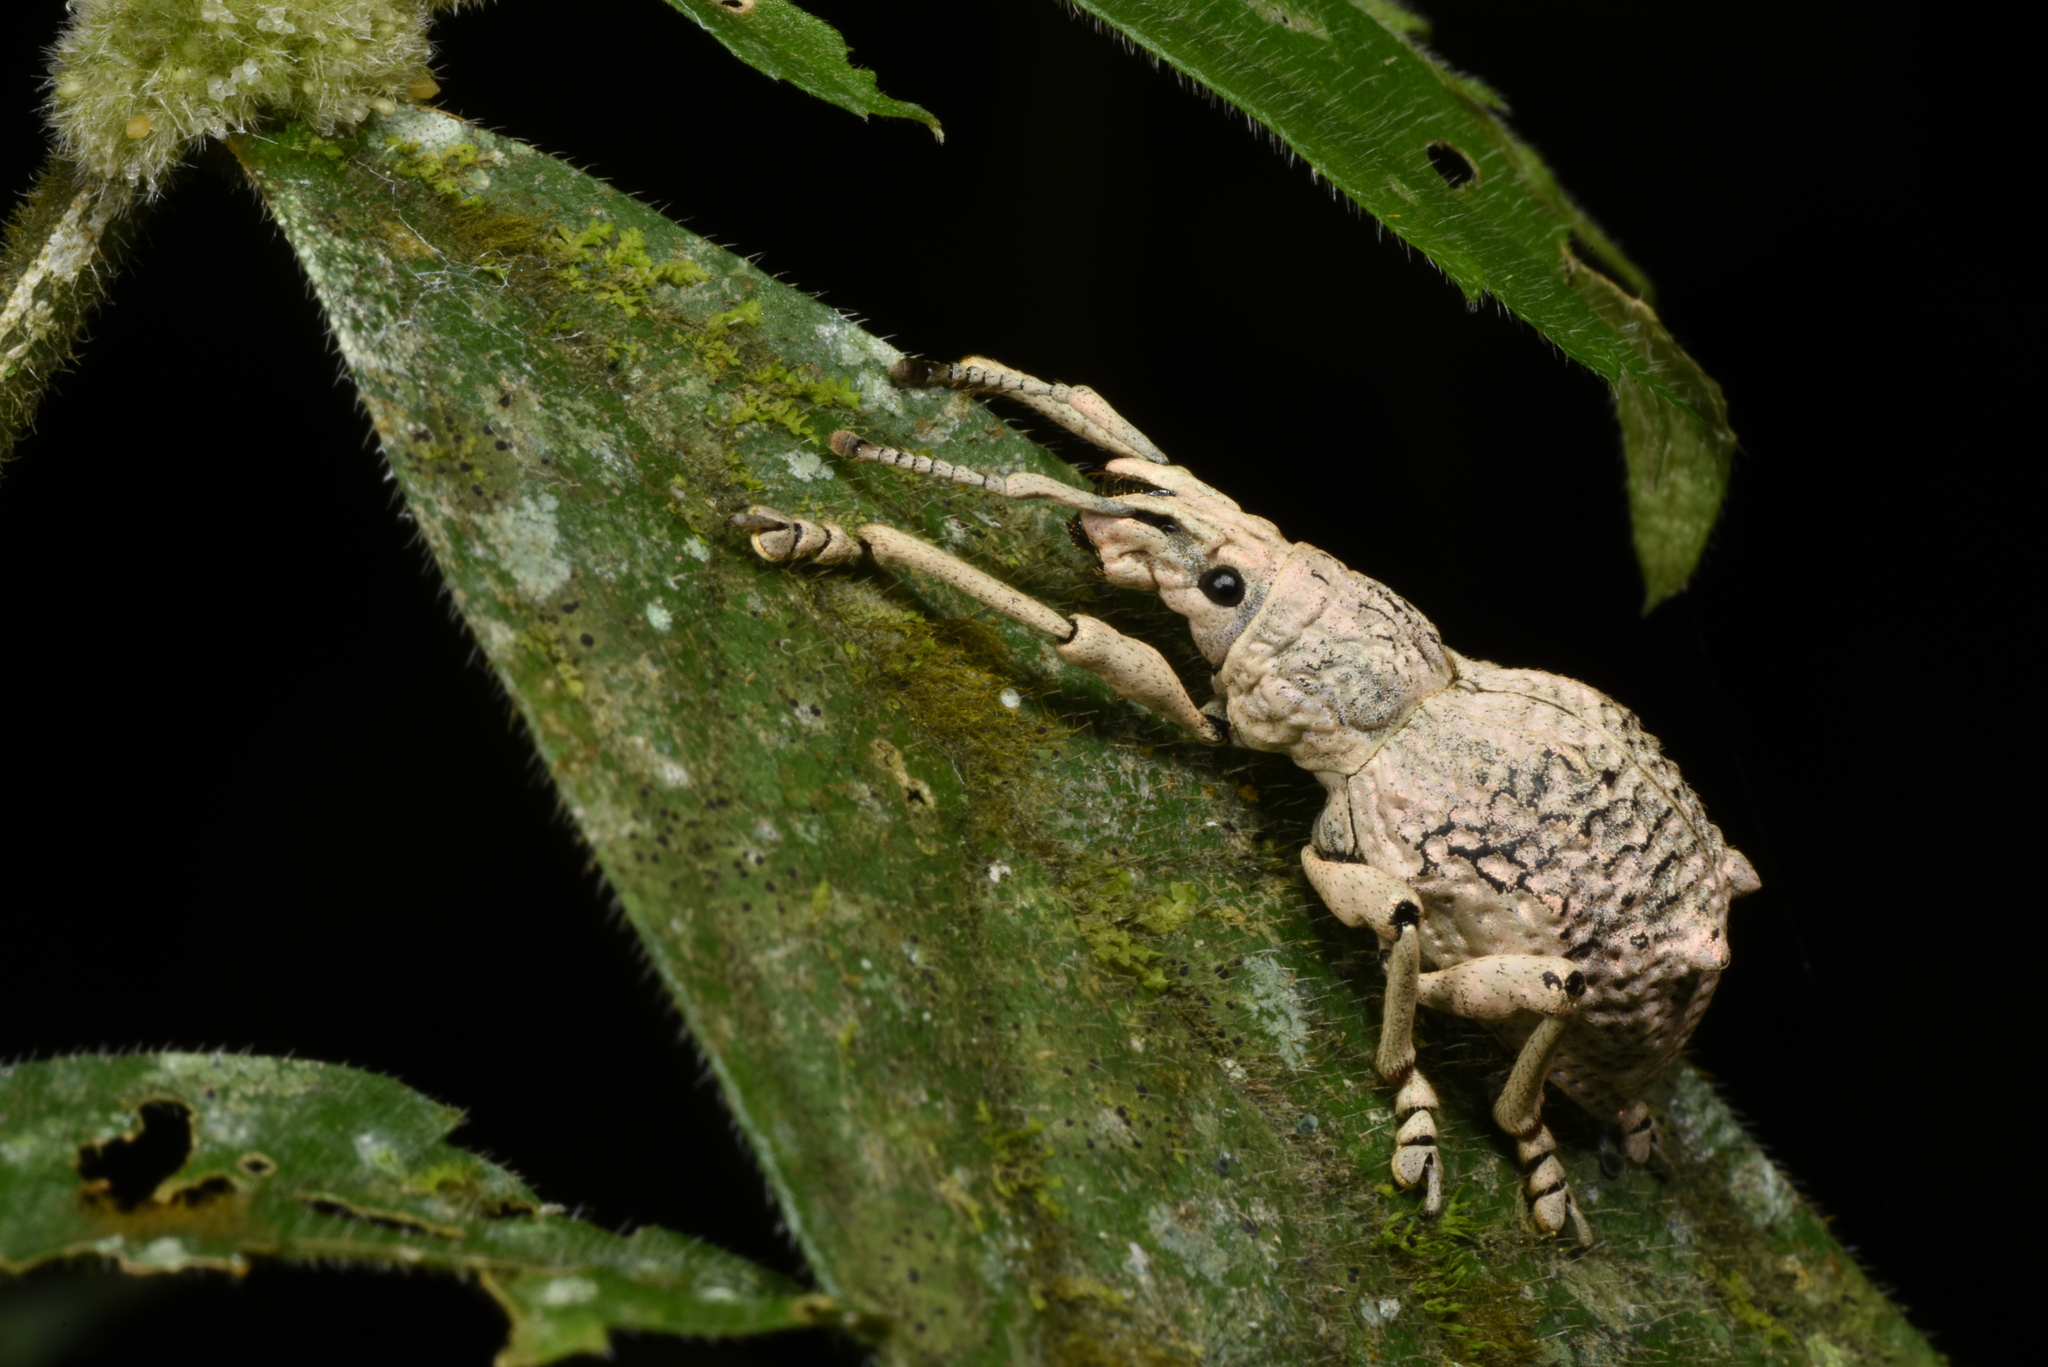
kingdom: Animalia
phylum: Arthropoda
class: Insecta
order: Coleoptera
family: Curculionidae
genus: Episomus
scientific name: Episomus takahashi
